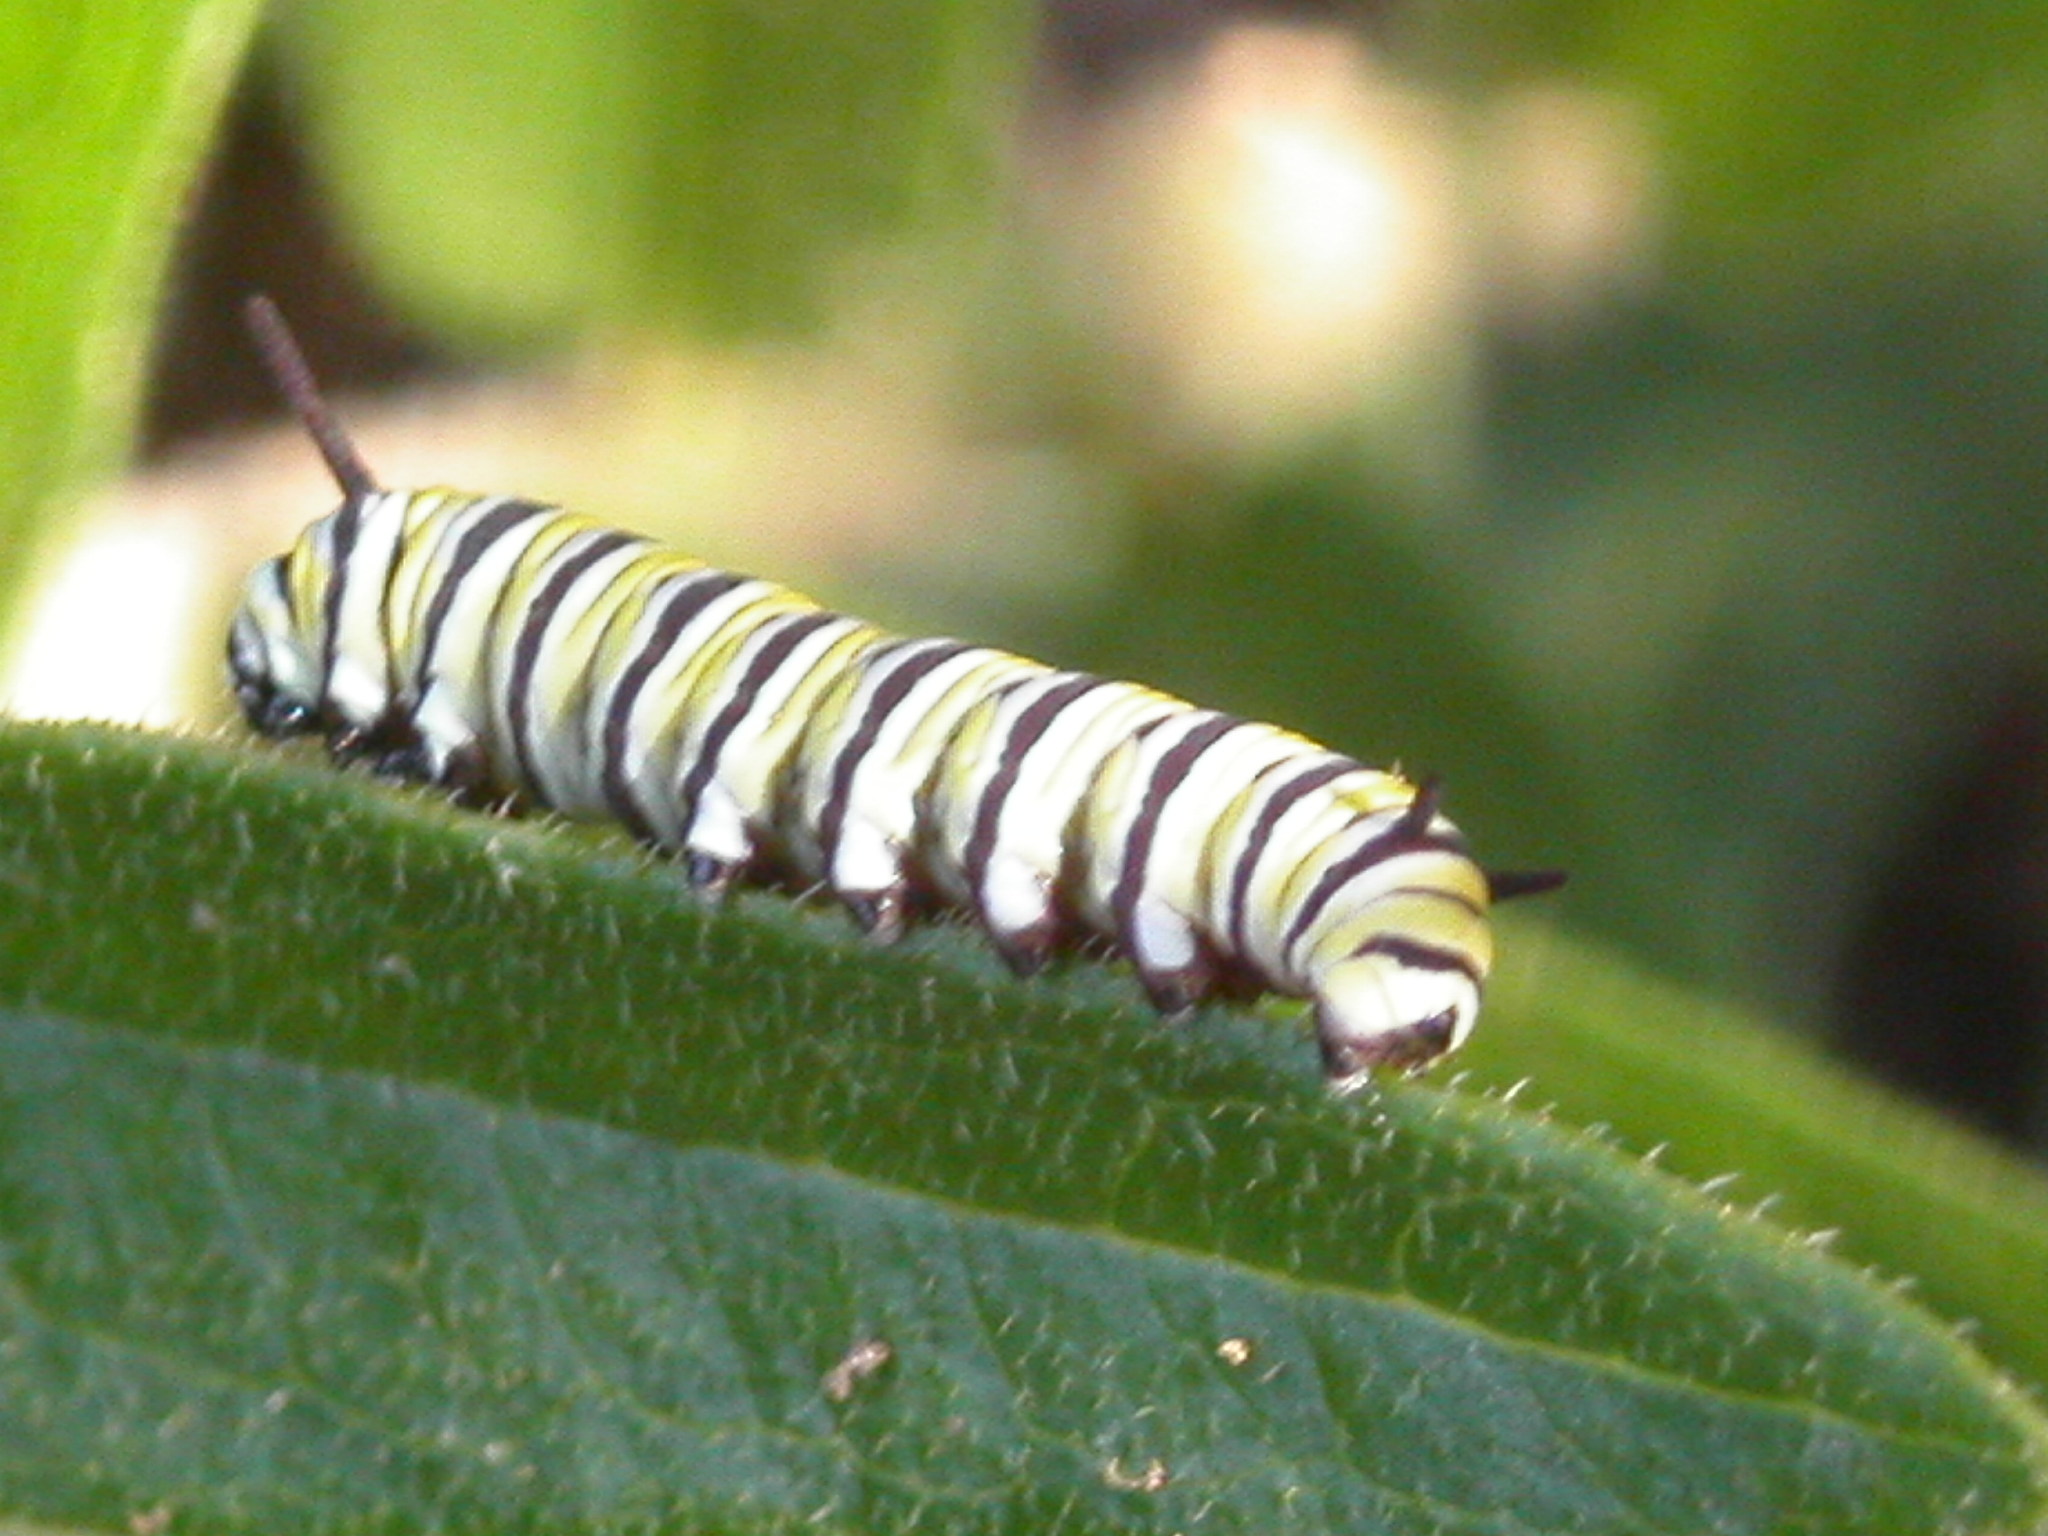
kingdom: Animalia
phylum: Arthropoda
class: Insecta
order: Lepidoptera
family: Nymphalidae
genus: Danaus
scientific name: Danaus plexippus
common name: Monarch
